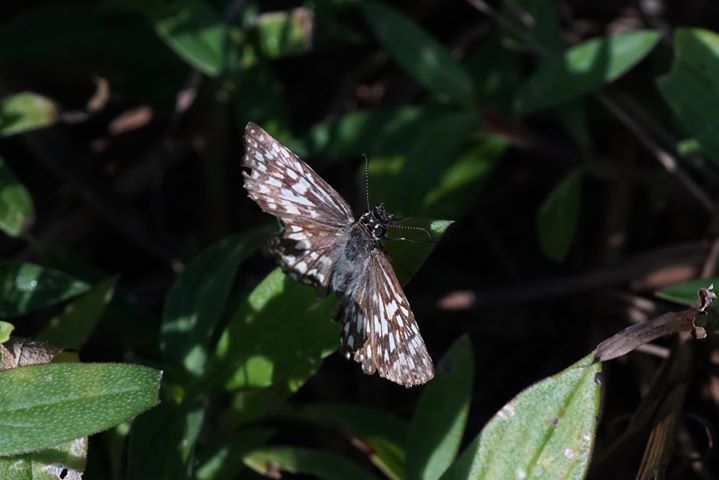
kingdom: Animalia
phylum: Arthropoda
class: Insecta
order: Lepidoptera
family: Hesperiidae
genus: Pyrgus
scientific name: Pyrgus oileus
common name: Tropical checkered-skipper
